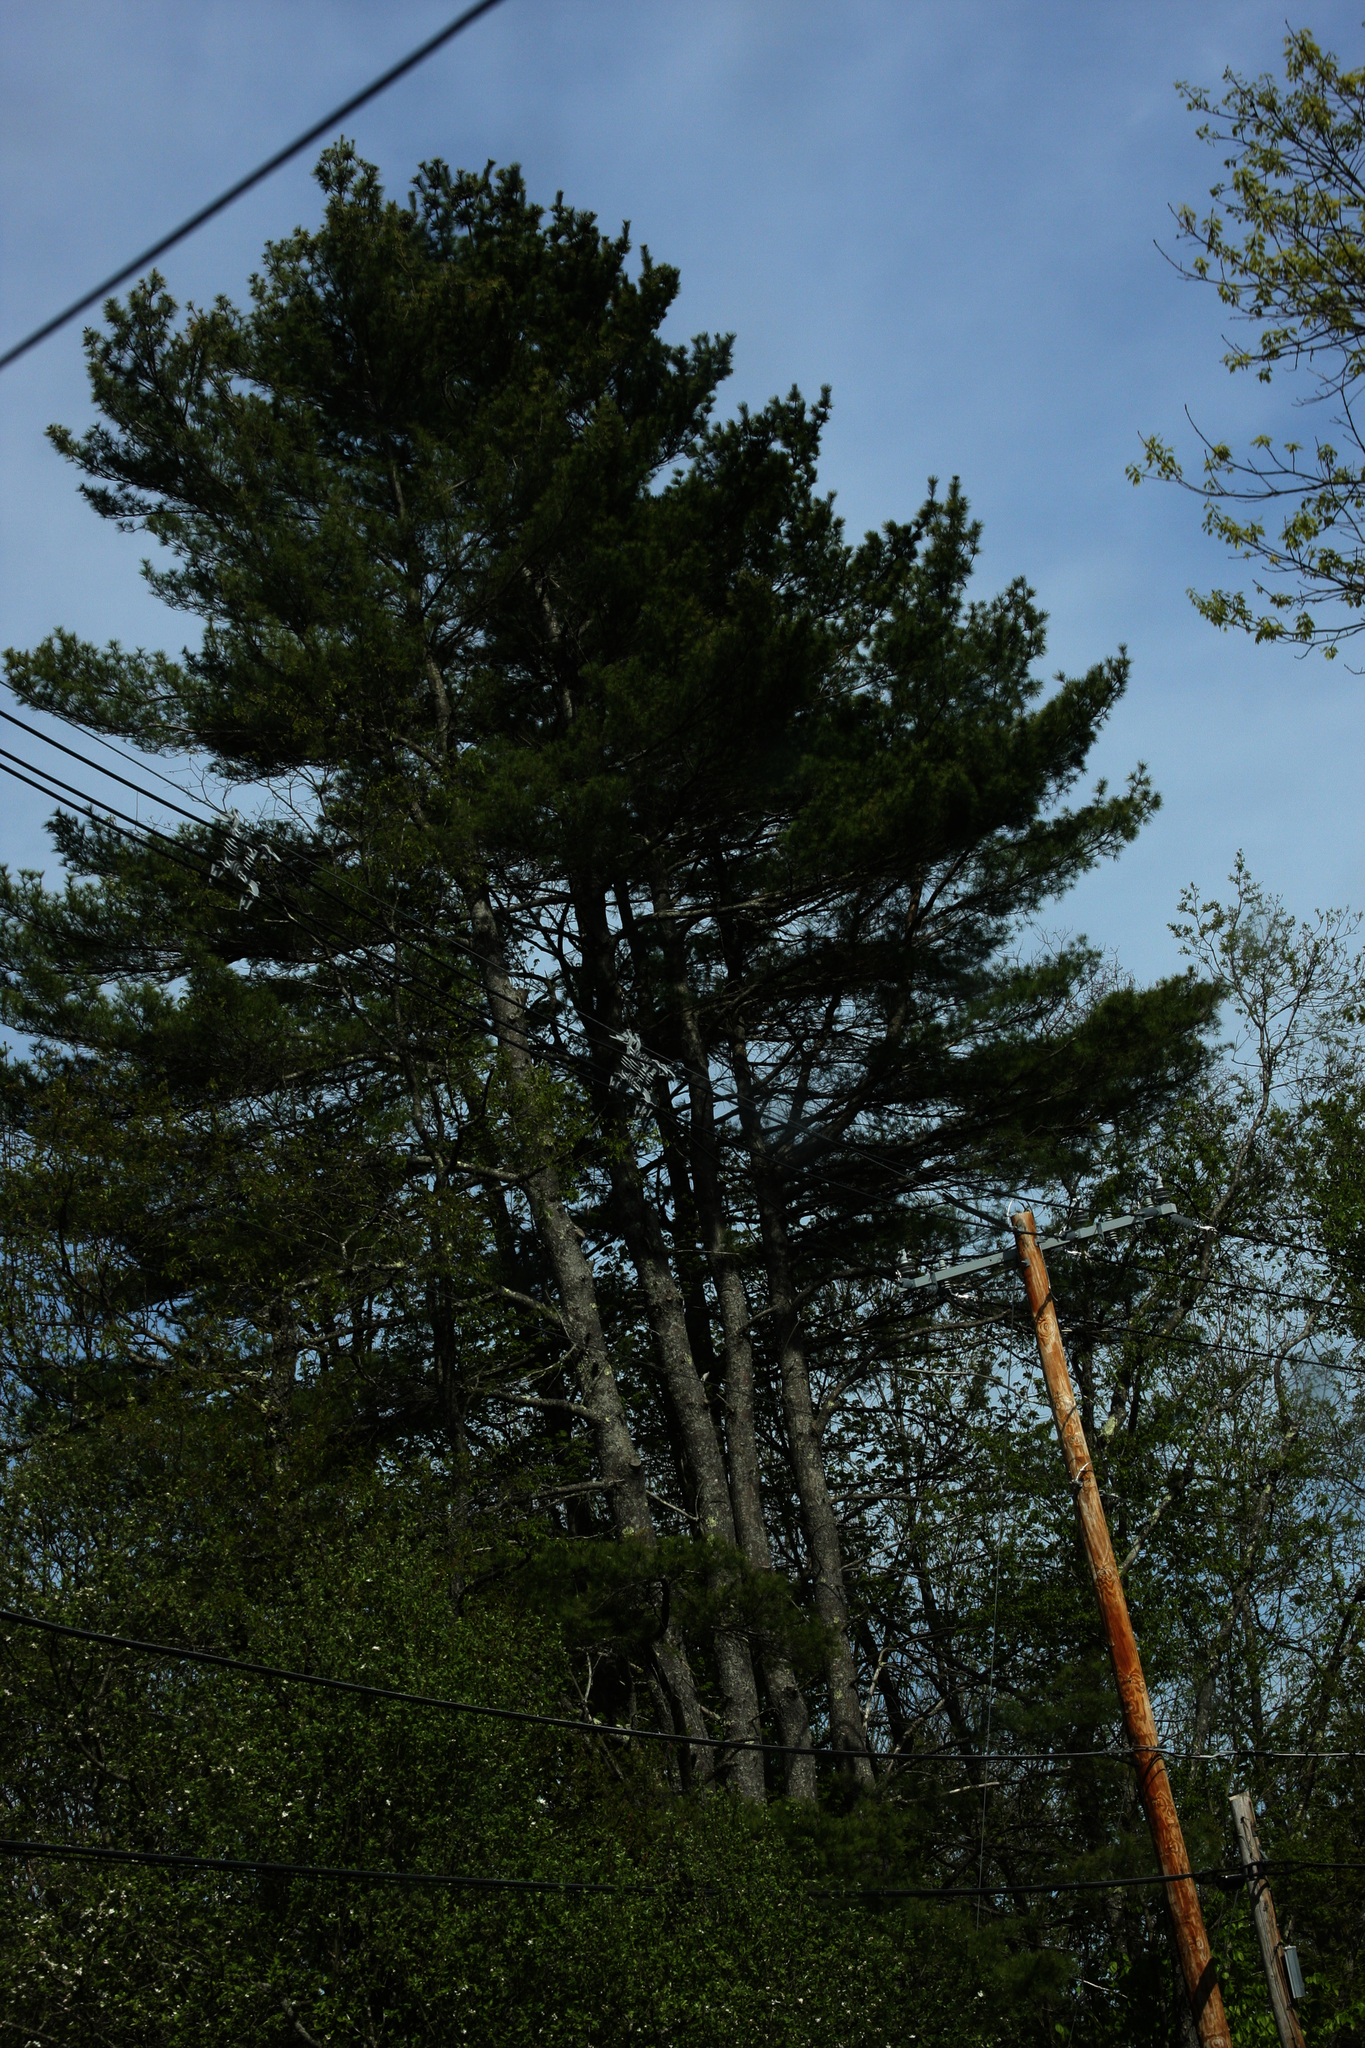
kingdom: Plantae
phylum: Tracheophyta
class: Pinopsida
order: Pinales
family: Pinaceae
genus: Pinus
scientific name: Pinus strobus
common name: Weymouth pine
